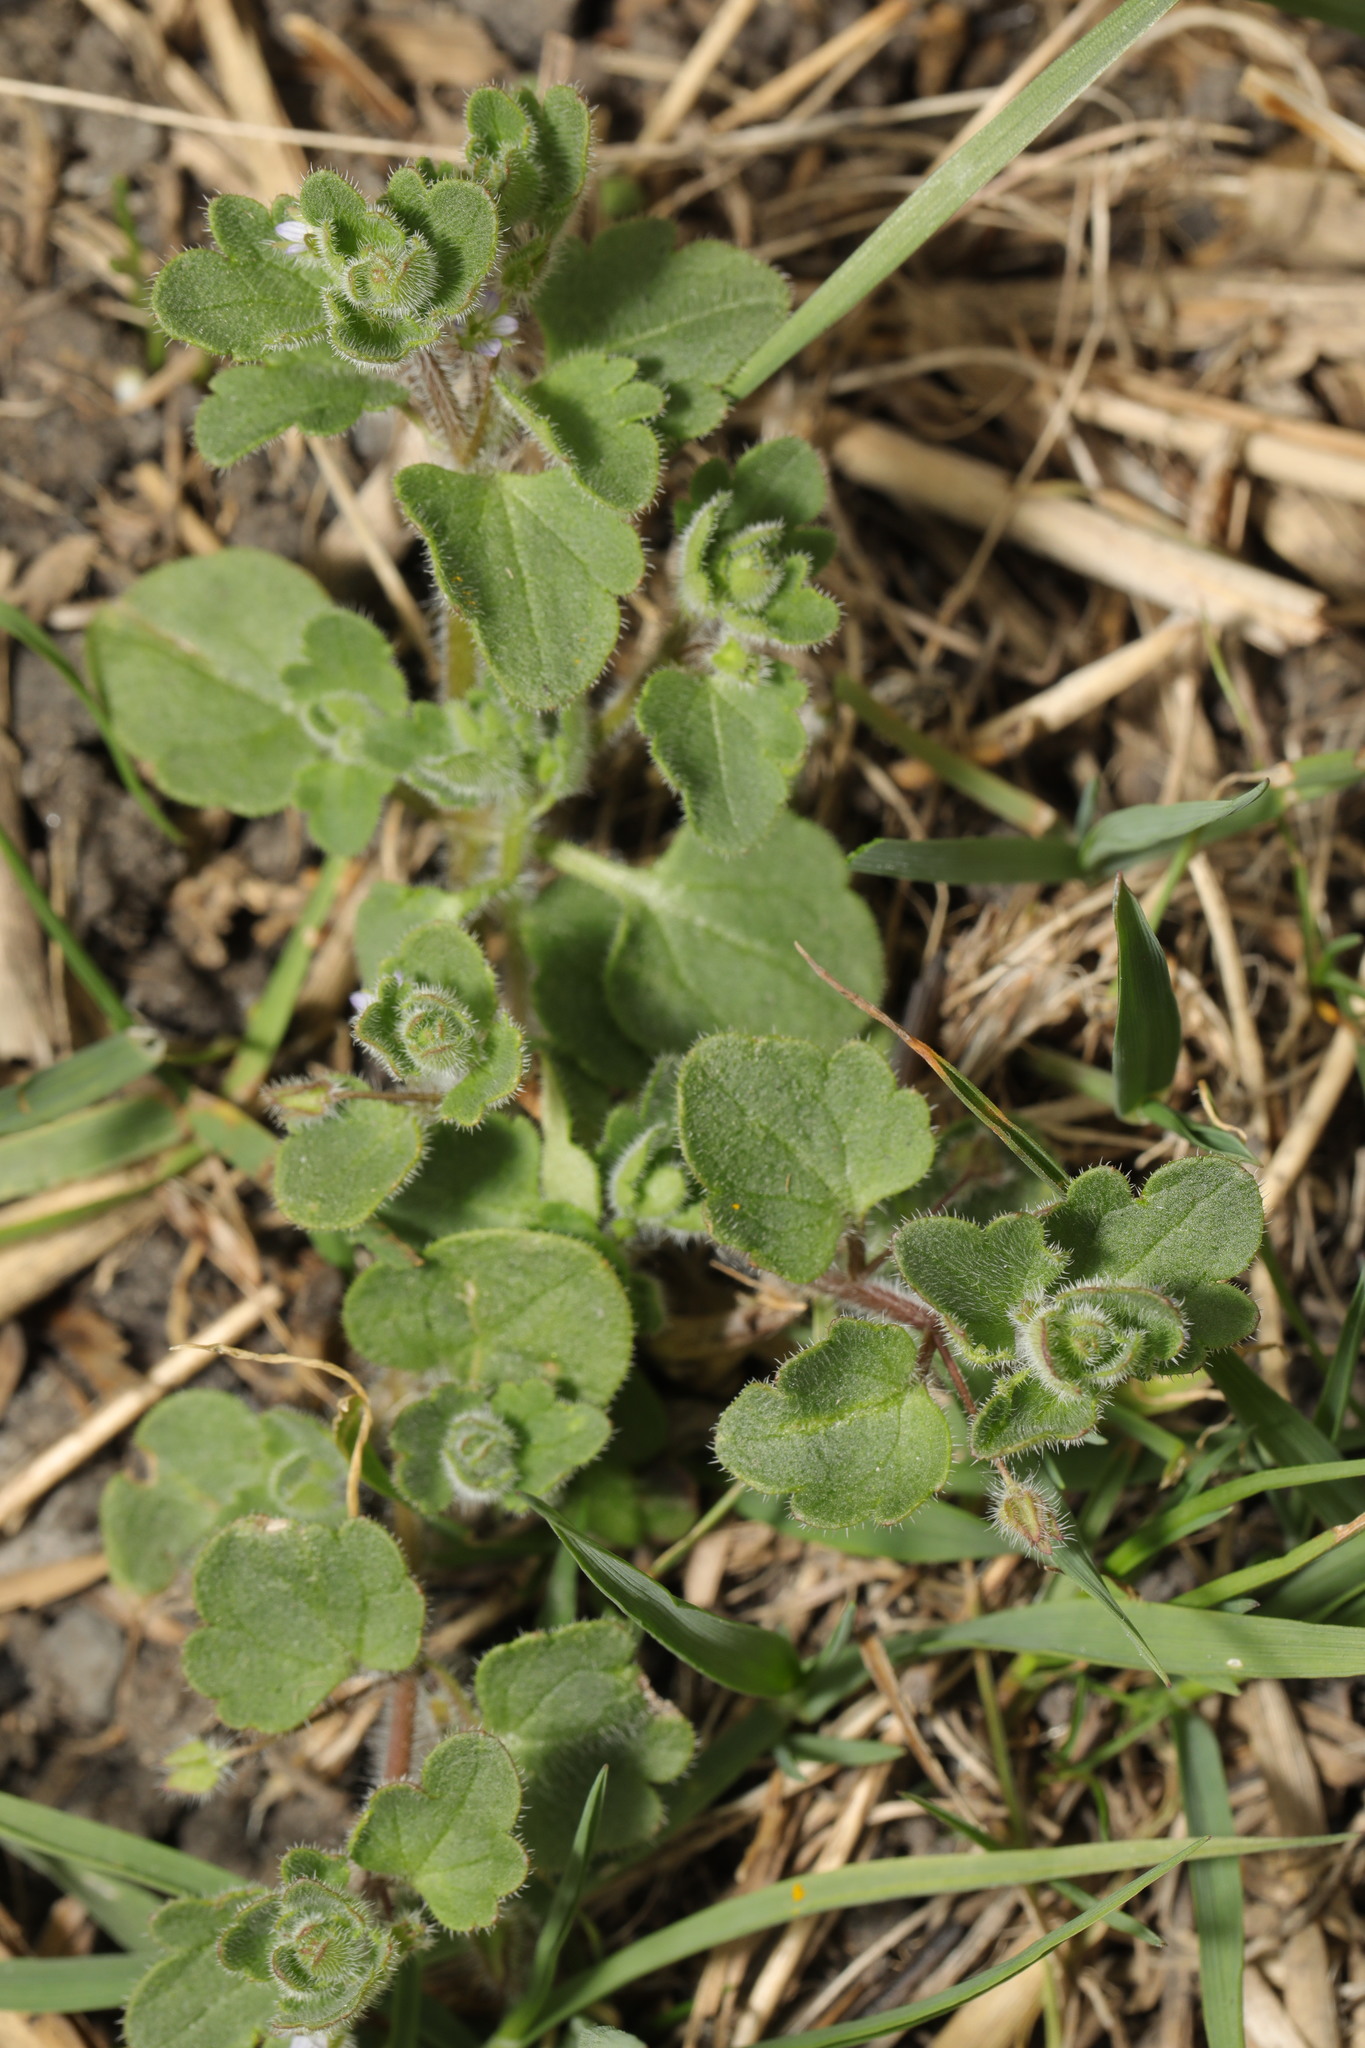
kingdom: Plantae
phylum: Tracheophyta
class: Magnoliopsida
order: Lamiales
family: Plantaginaceae
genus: Veronica
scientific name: Veronica hederifolia
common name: Ivy-leaved speedwell
